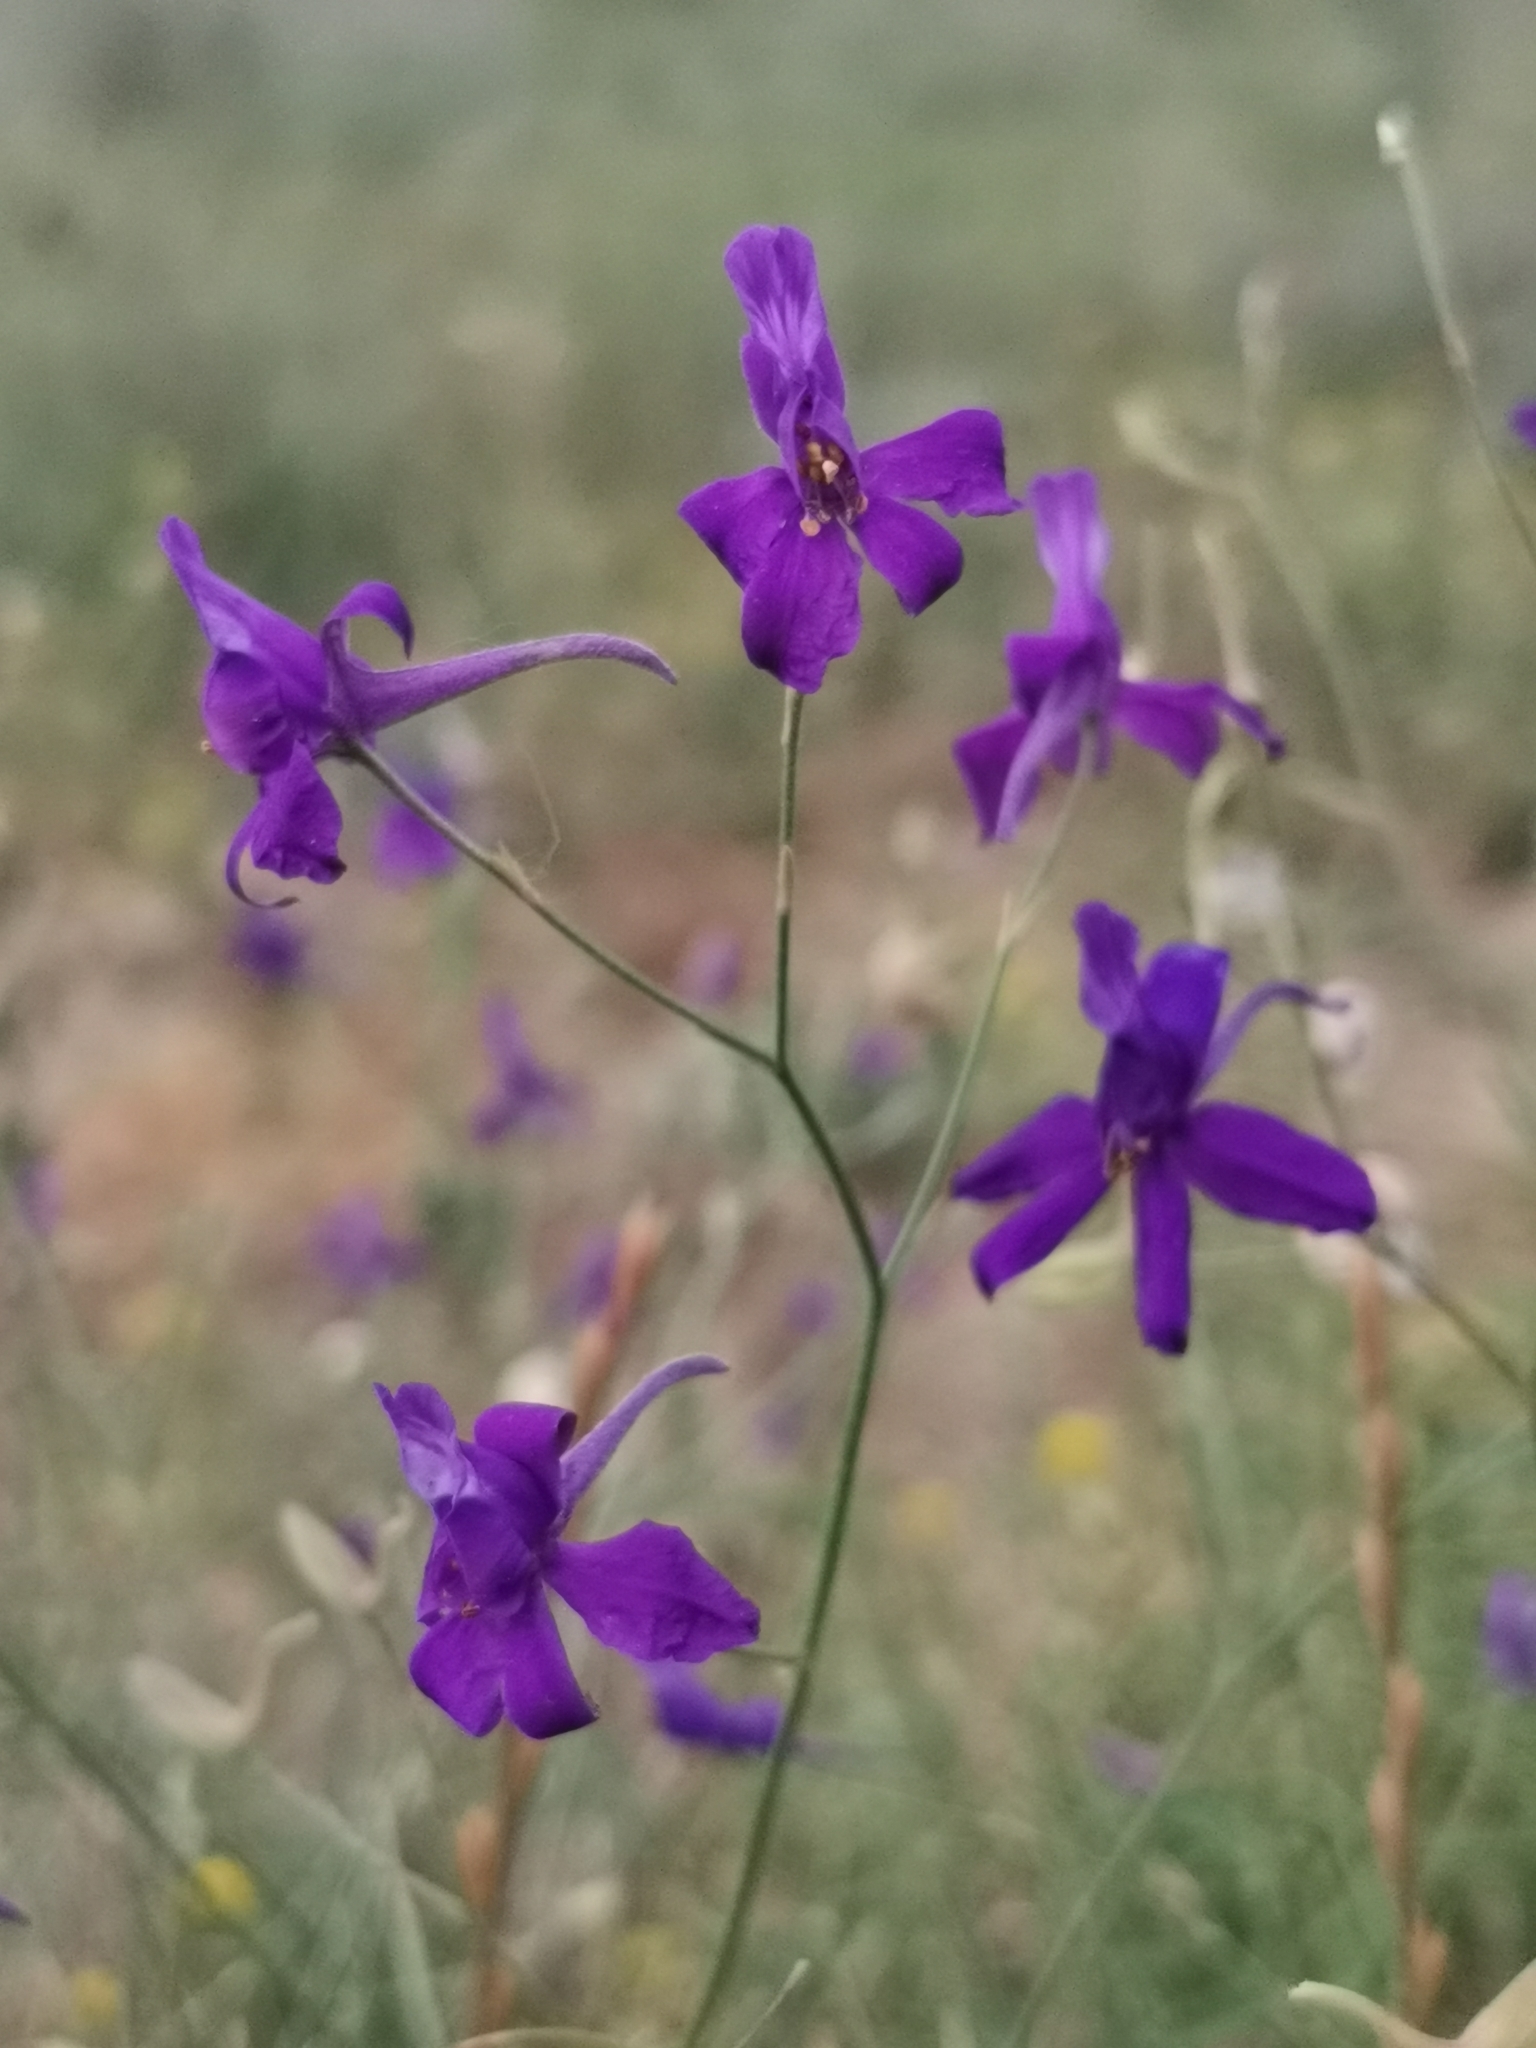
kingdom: Plantae
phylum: Tracheophyta
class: Magnoliopsida
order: Ranunculales
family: Ranunculaceae
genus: Delphinium
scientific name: Delphinium consolida
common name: Branching larkspur
